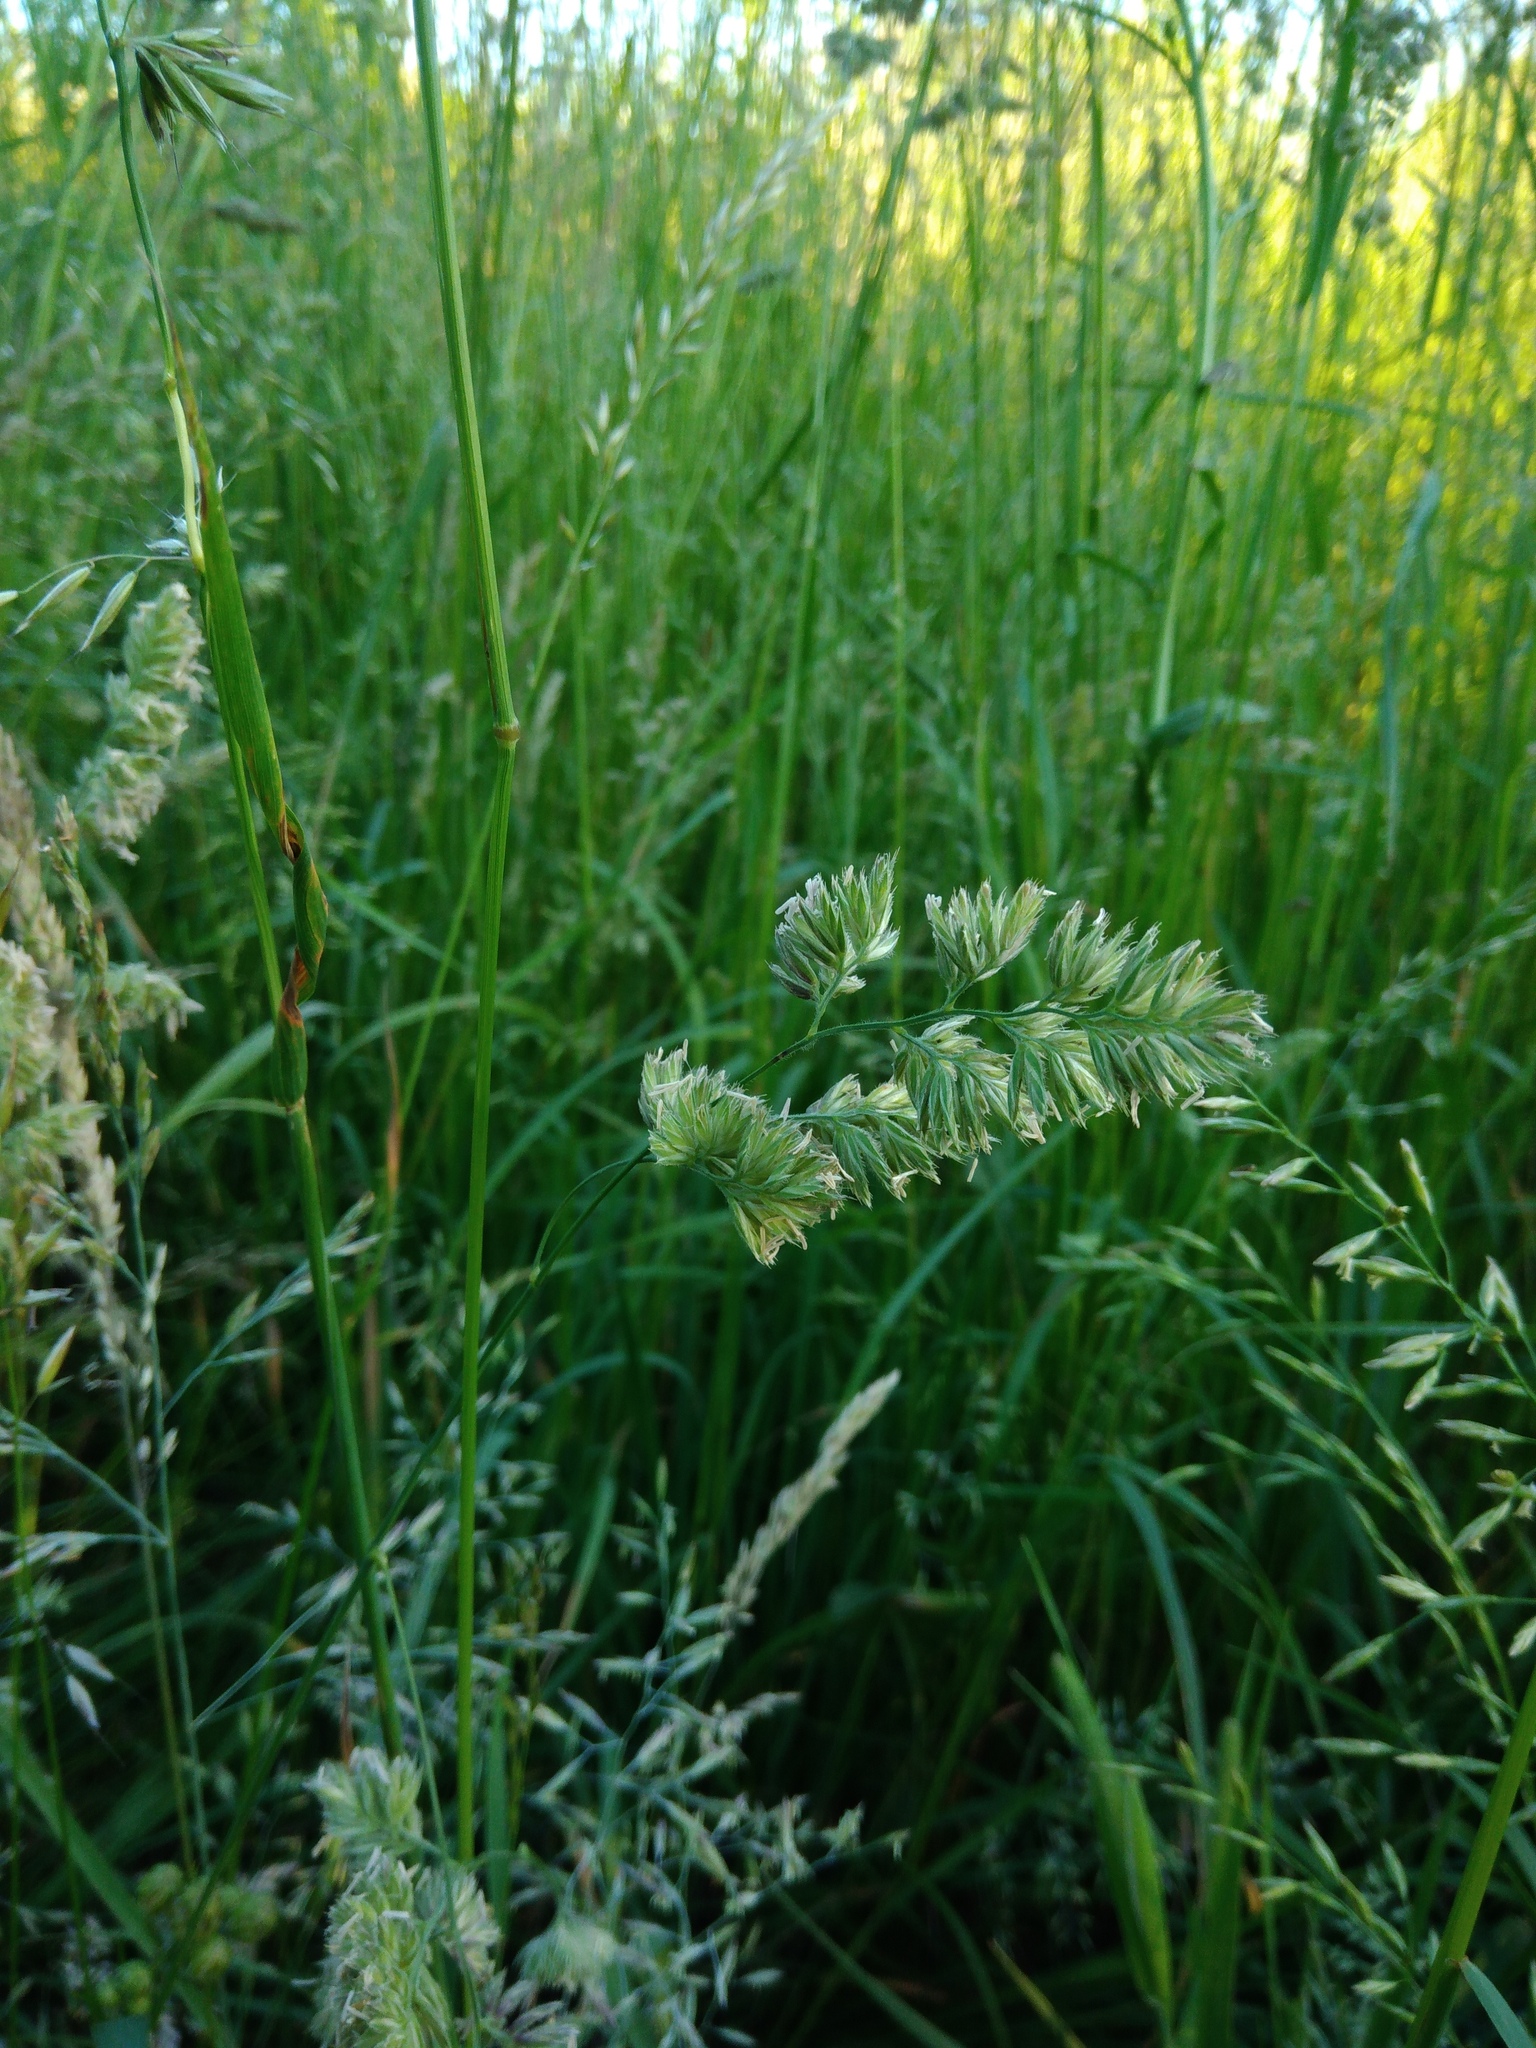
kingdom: Plantae
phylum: Tracheophyta
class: Liliopsida
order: Poales
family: Poaceae
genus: Dactylis
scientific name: Dactylis glomerata
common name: Orchardgrass
